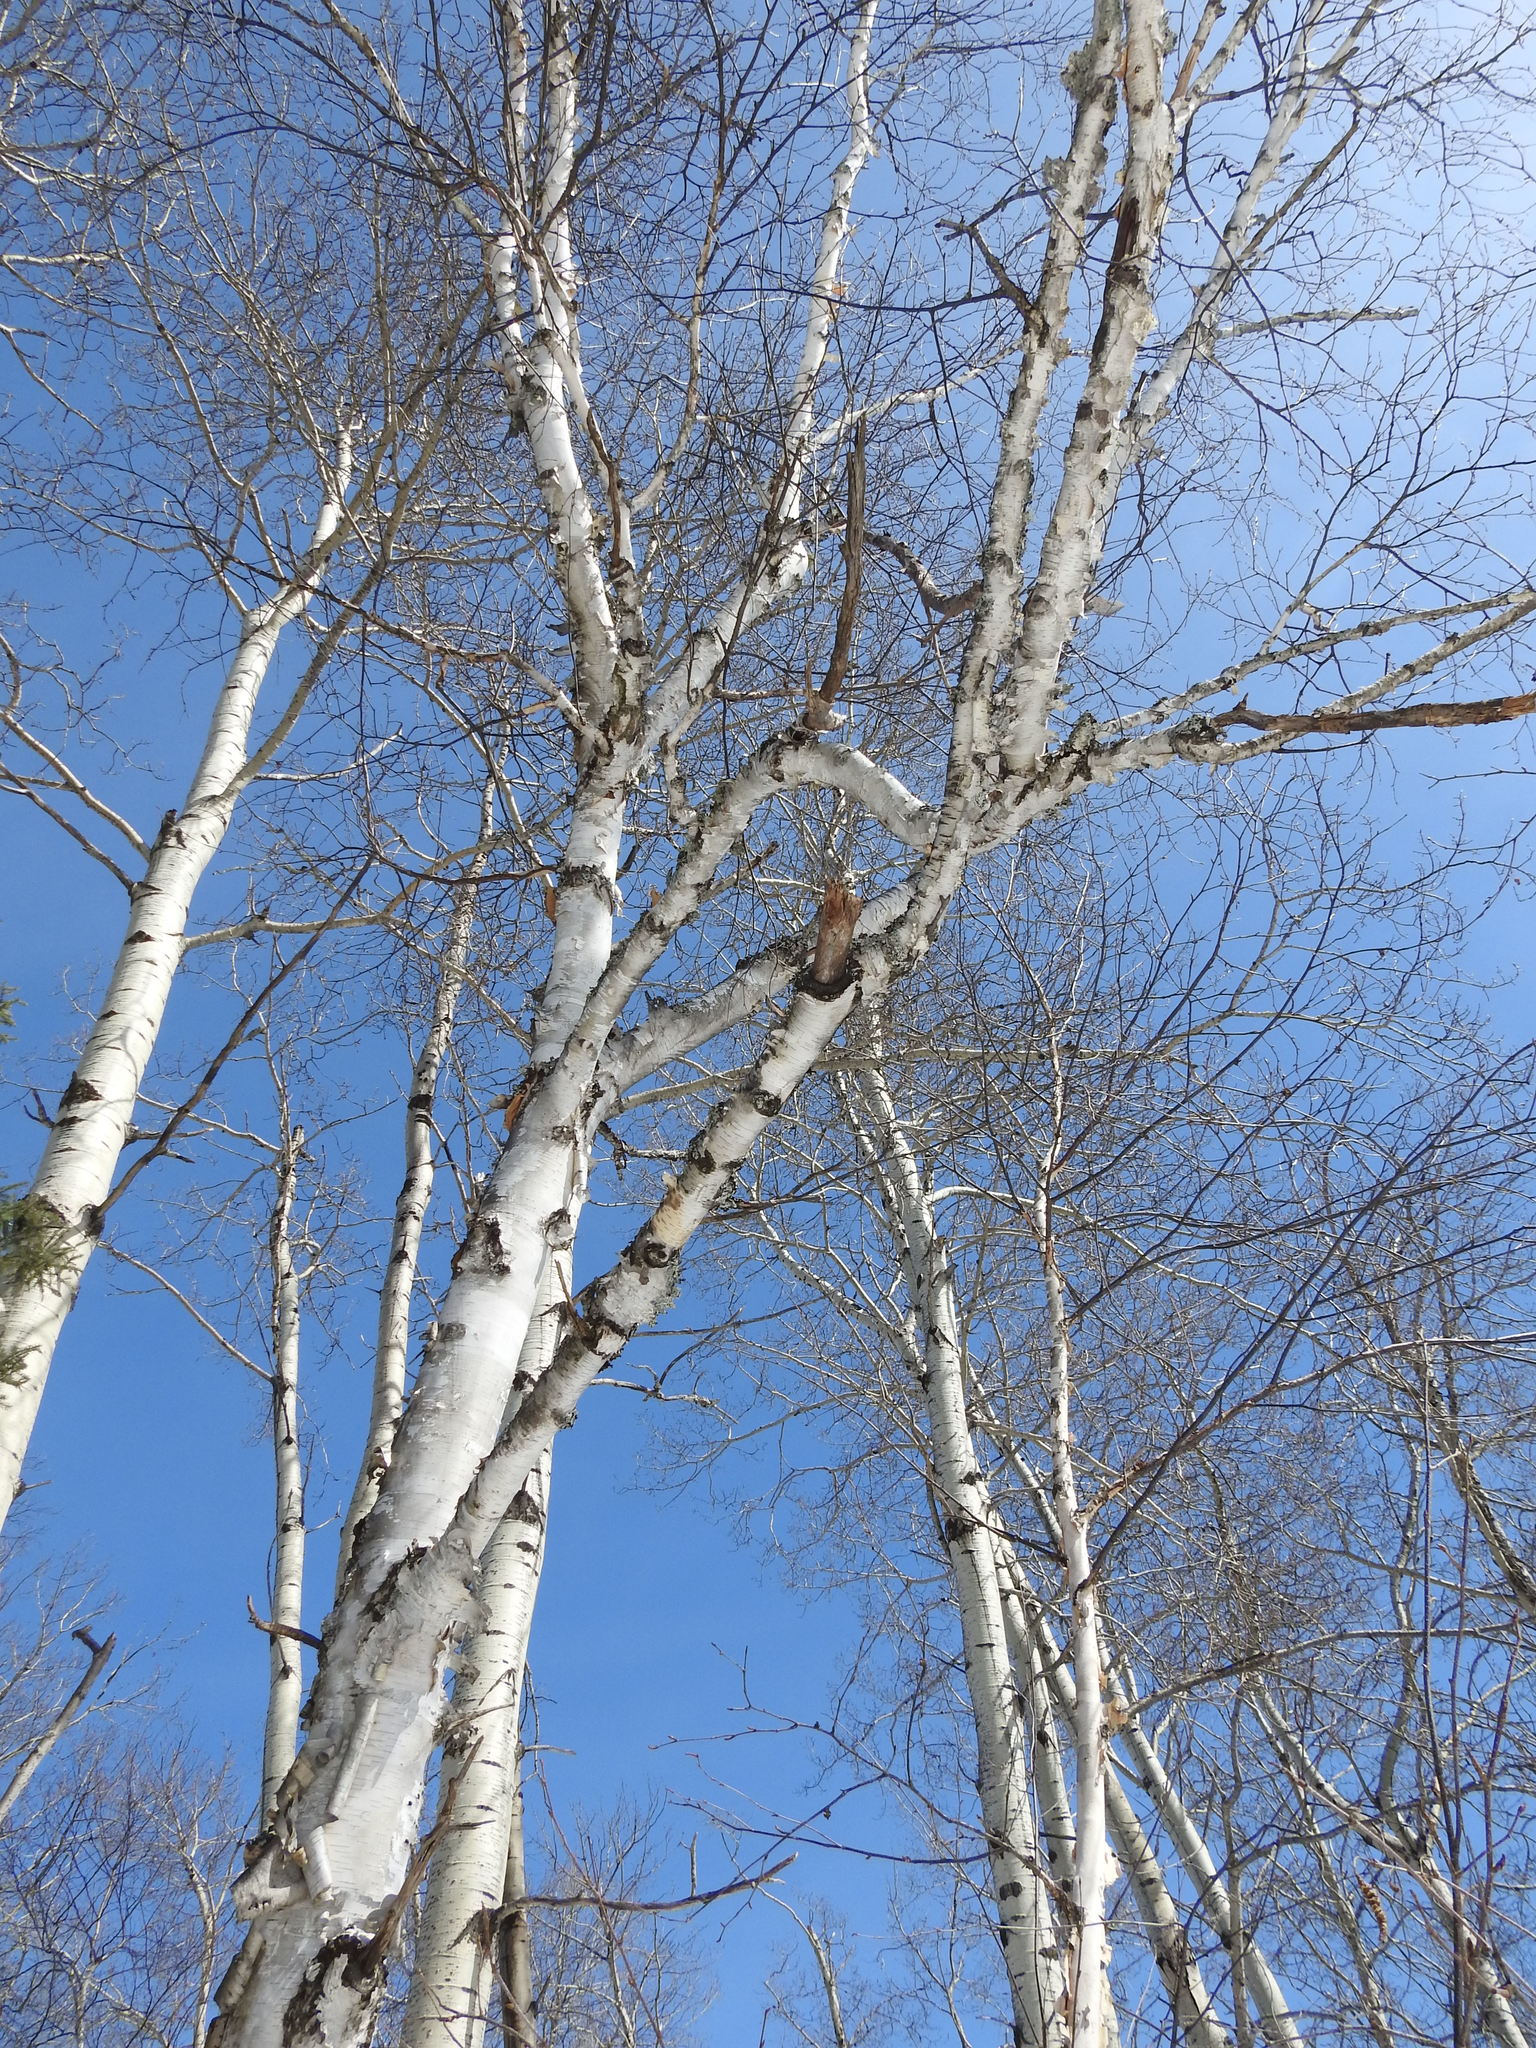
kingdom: Plantae
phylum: Tracheophyta
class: Magnoliopsida
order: Fagales
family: Betulaceae
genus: Betula
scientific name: Betula papyrifera
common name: Paper birch
